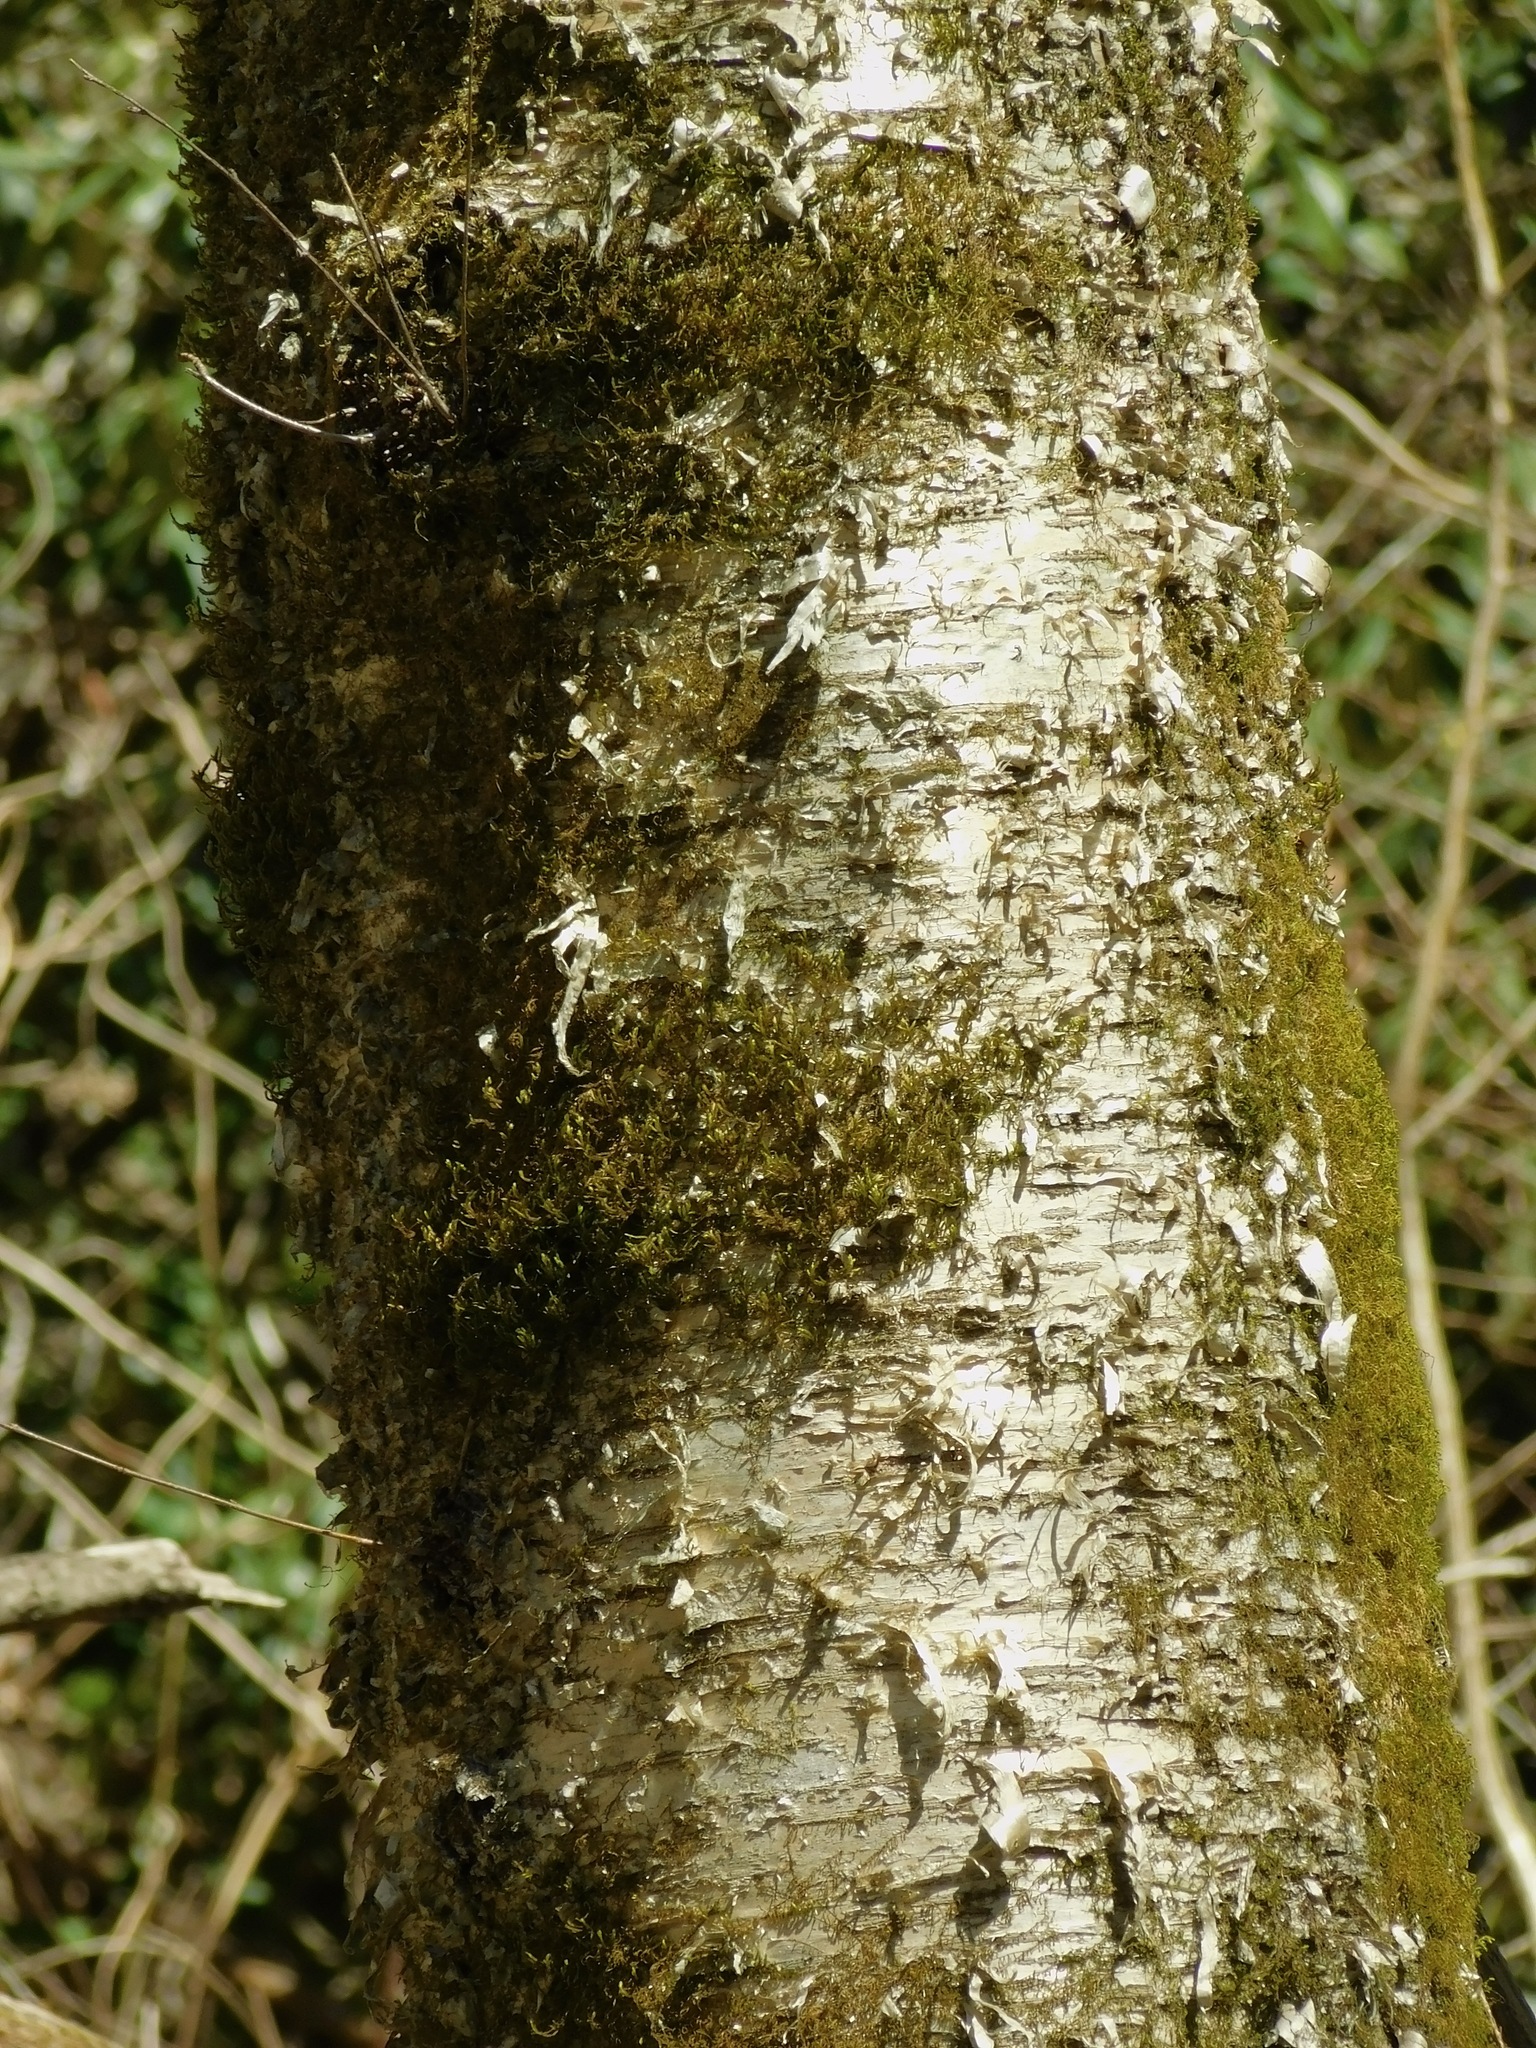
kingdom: Plantae
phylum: Tracheophyta
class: Magnoliopsida
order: Fagales
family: Betulaceae
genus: Betula
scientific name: Betula alleghaniensis
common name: Yellow birch
